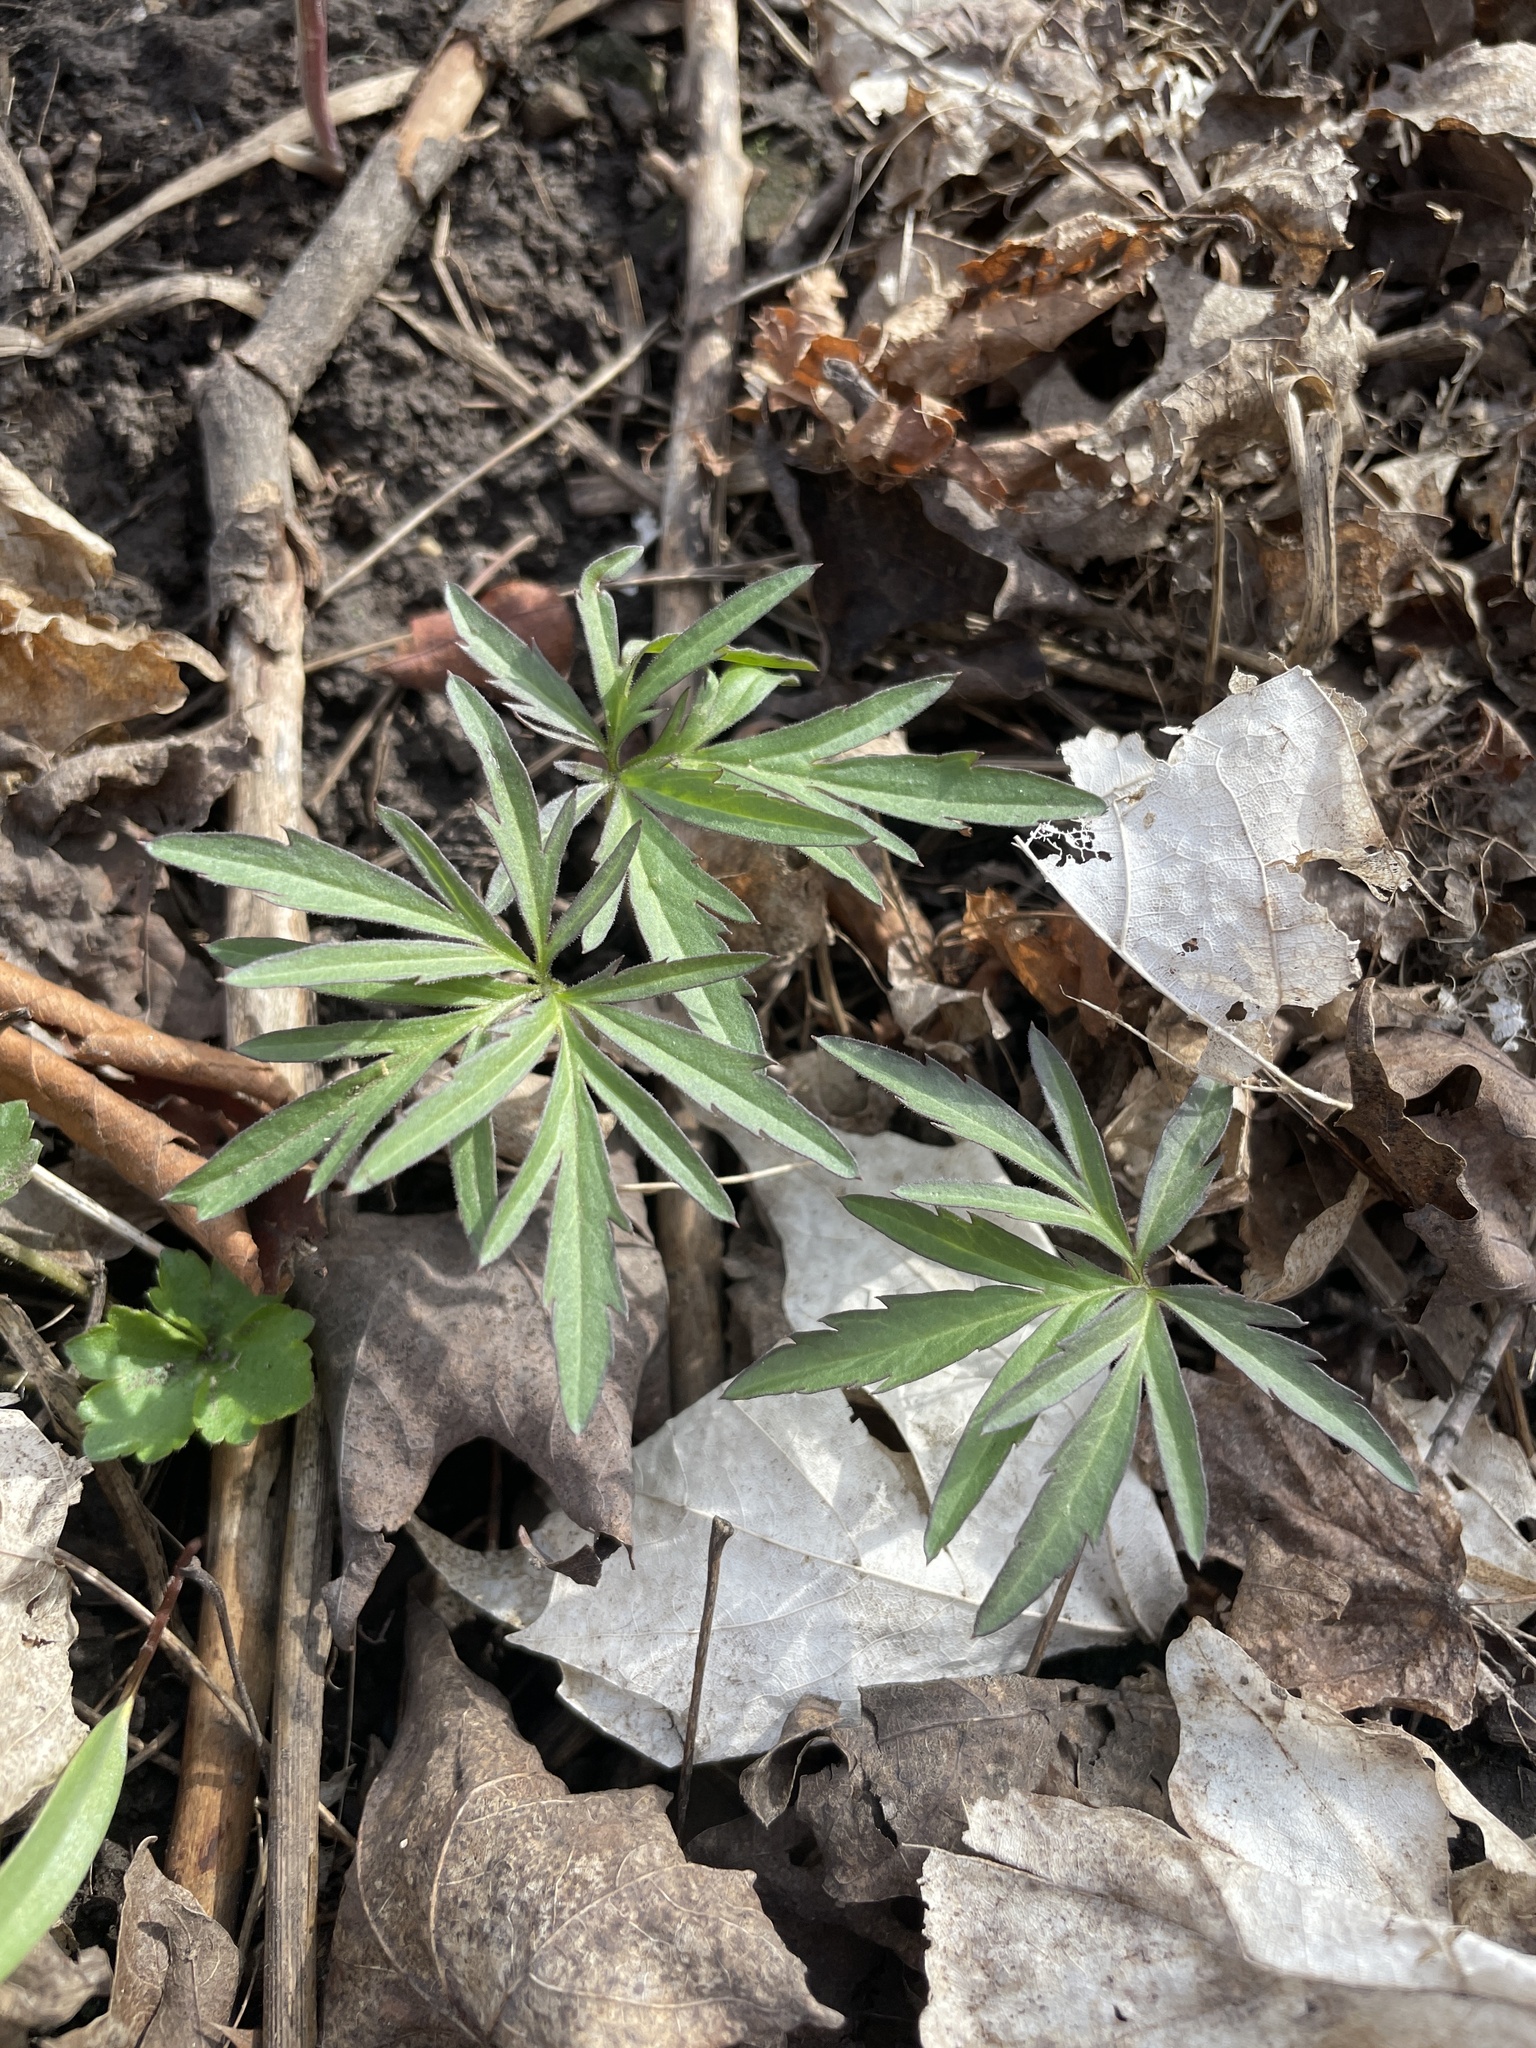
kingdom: Plantae
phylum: Tracheophyta
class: Magnoliopsida
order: Brassicales
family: Brassicaceae
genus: Cardamine
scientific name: Cardamine concatenata
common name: Cut-leaf toothcup
